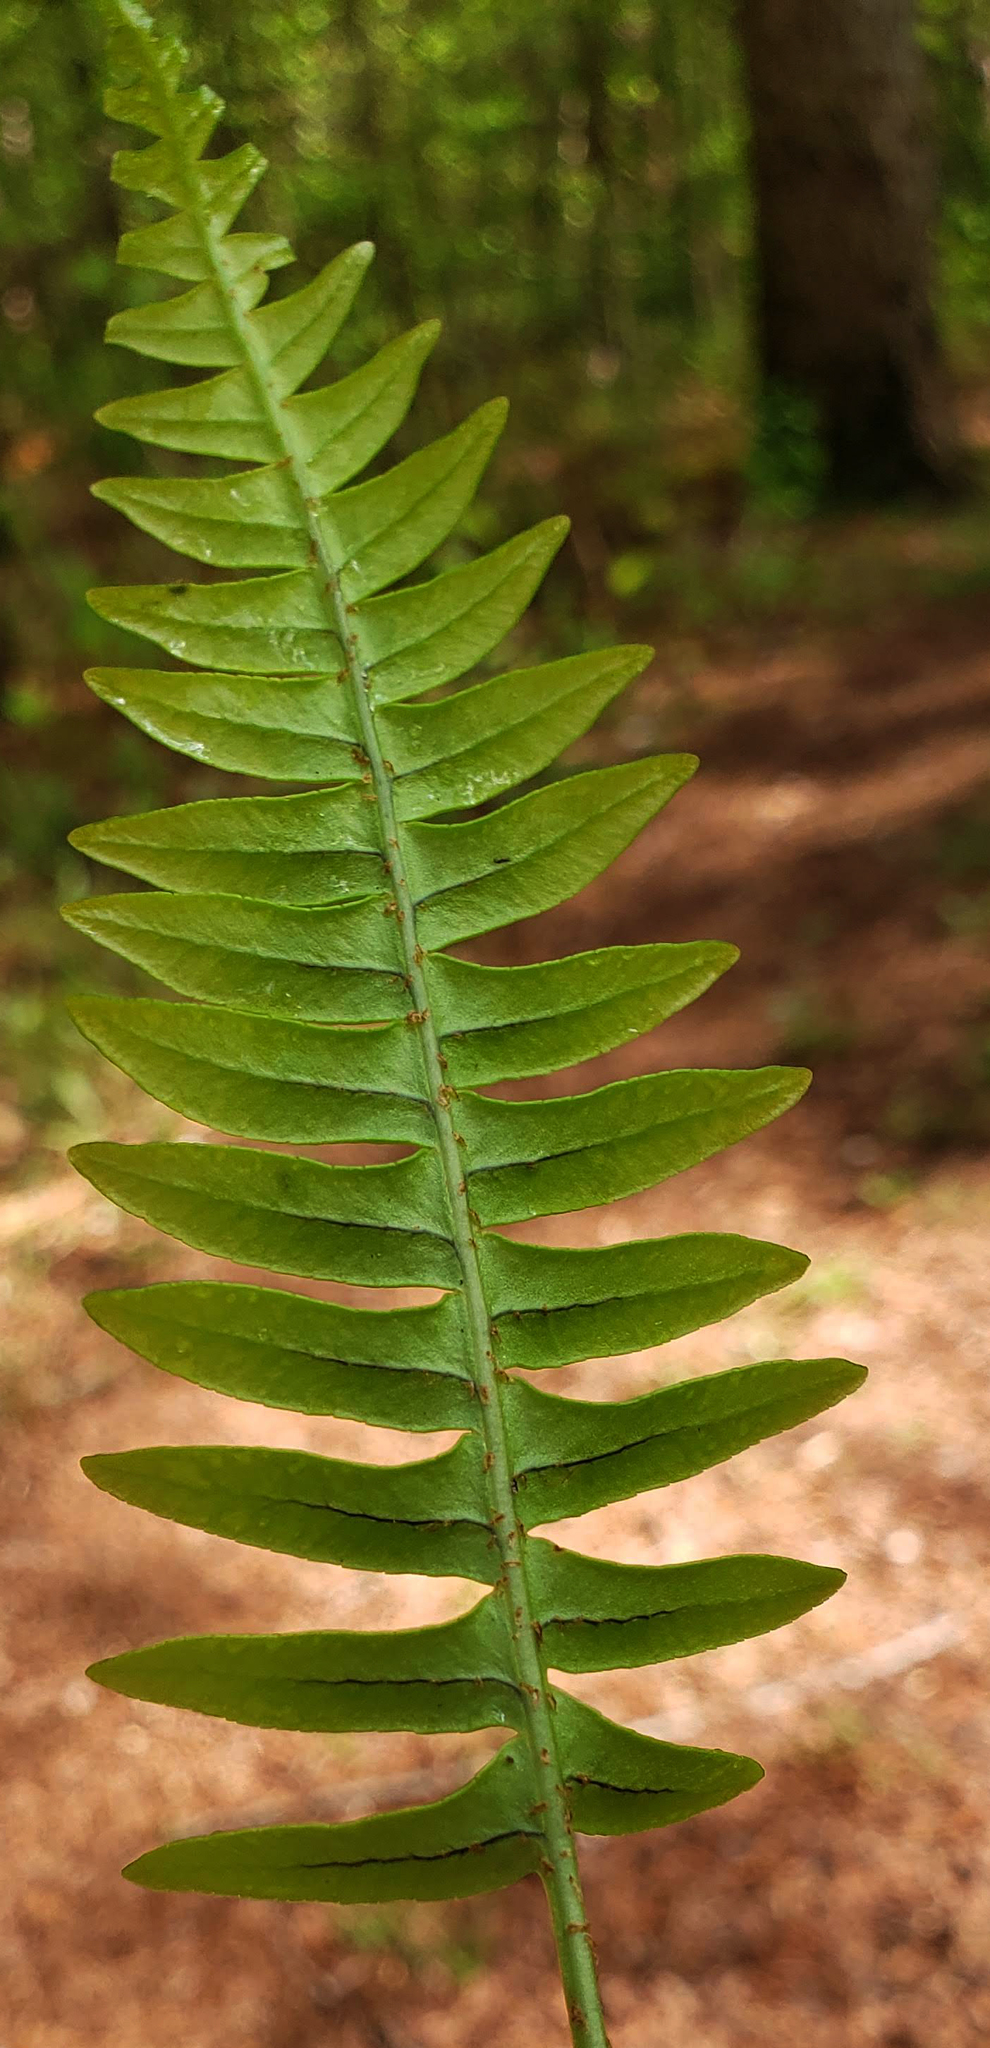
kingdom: Plantae
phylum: Tracheophyta
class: Polypodiopsida
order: Polypodiales
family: Polypodiaceae
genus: Polypodium
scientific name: Polypodium virginianum
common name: American wall fern
